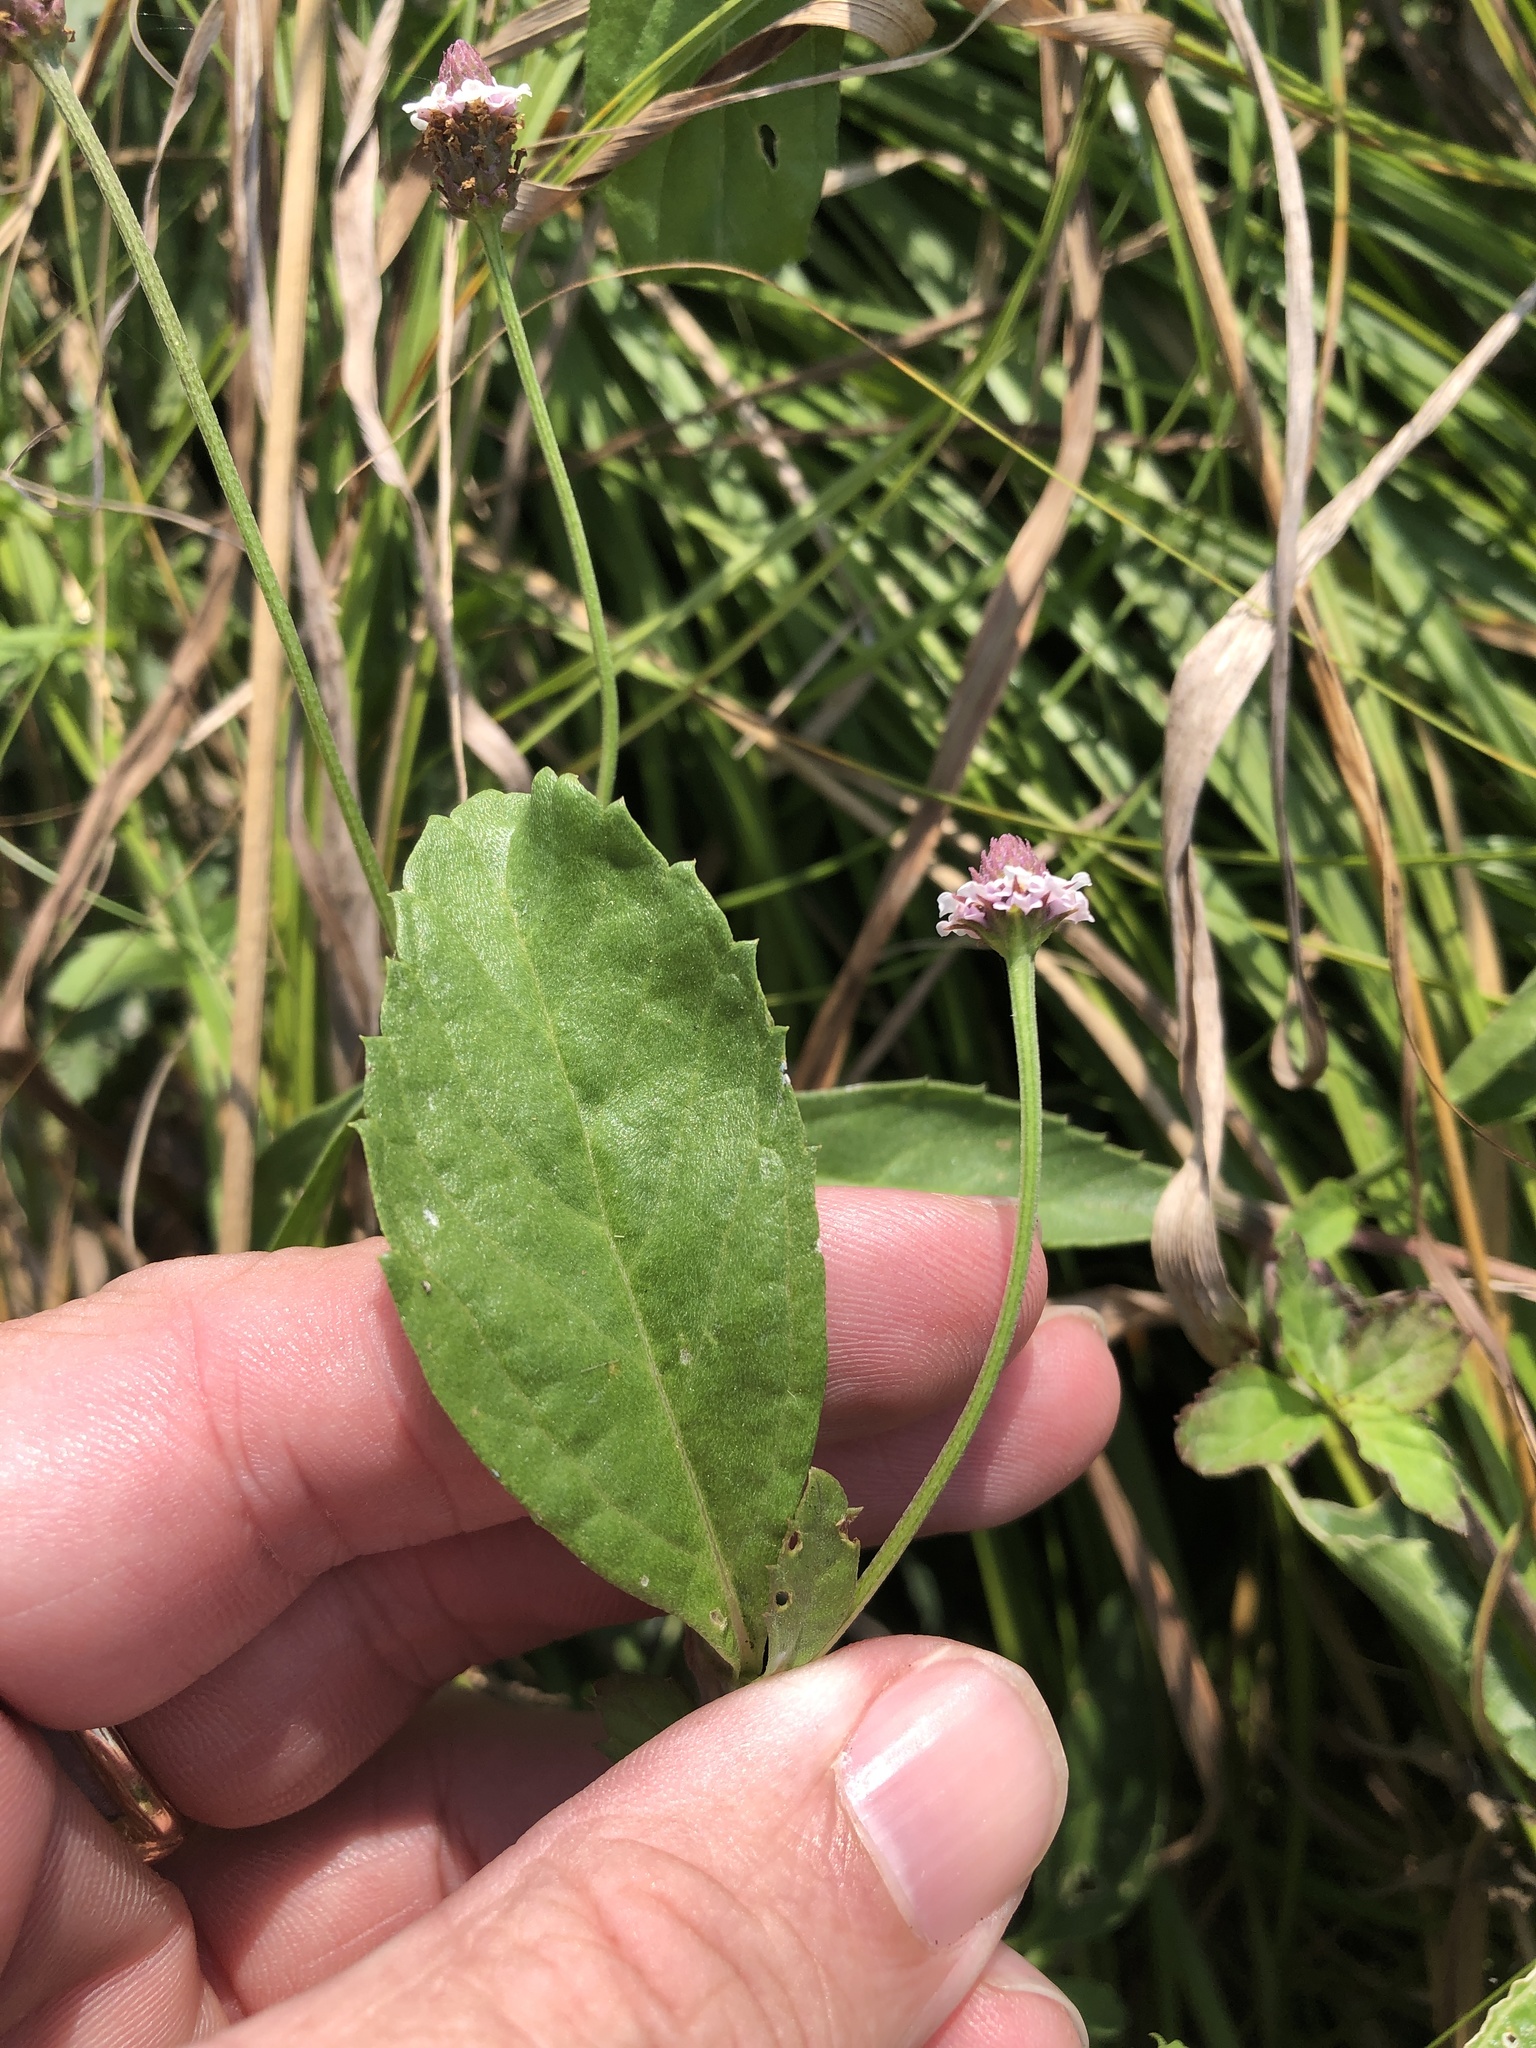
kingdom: Plantae
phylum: Tracheophyta
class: Magnoliopsida
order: Lamiales
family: Verbenaceae
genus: Phyla
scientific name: Phyla lanceolata
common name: Northern fogfruit
